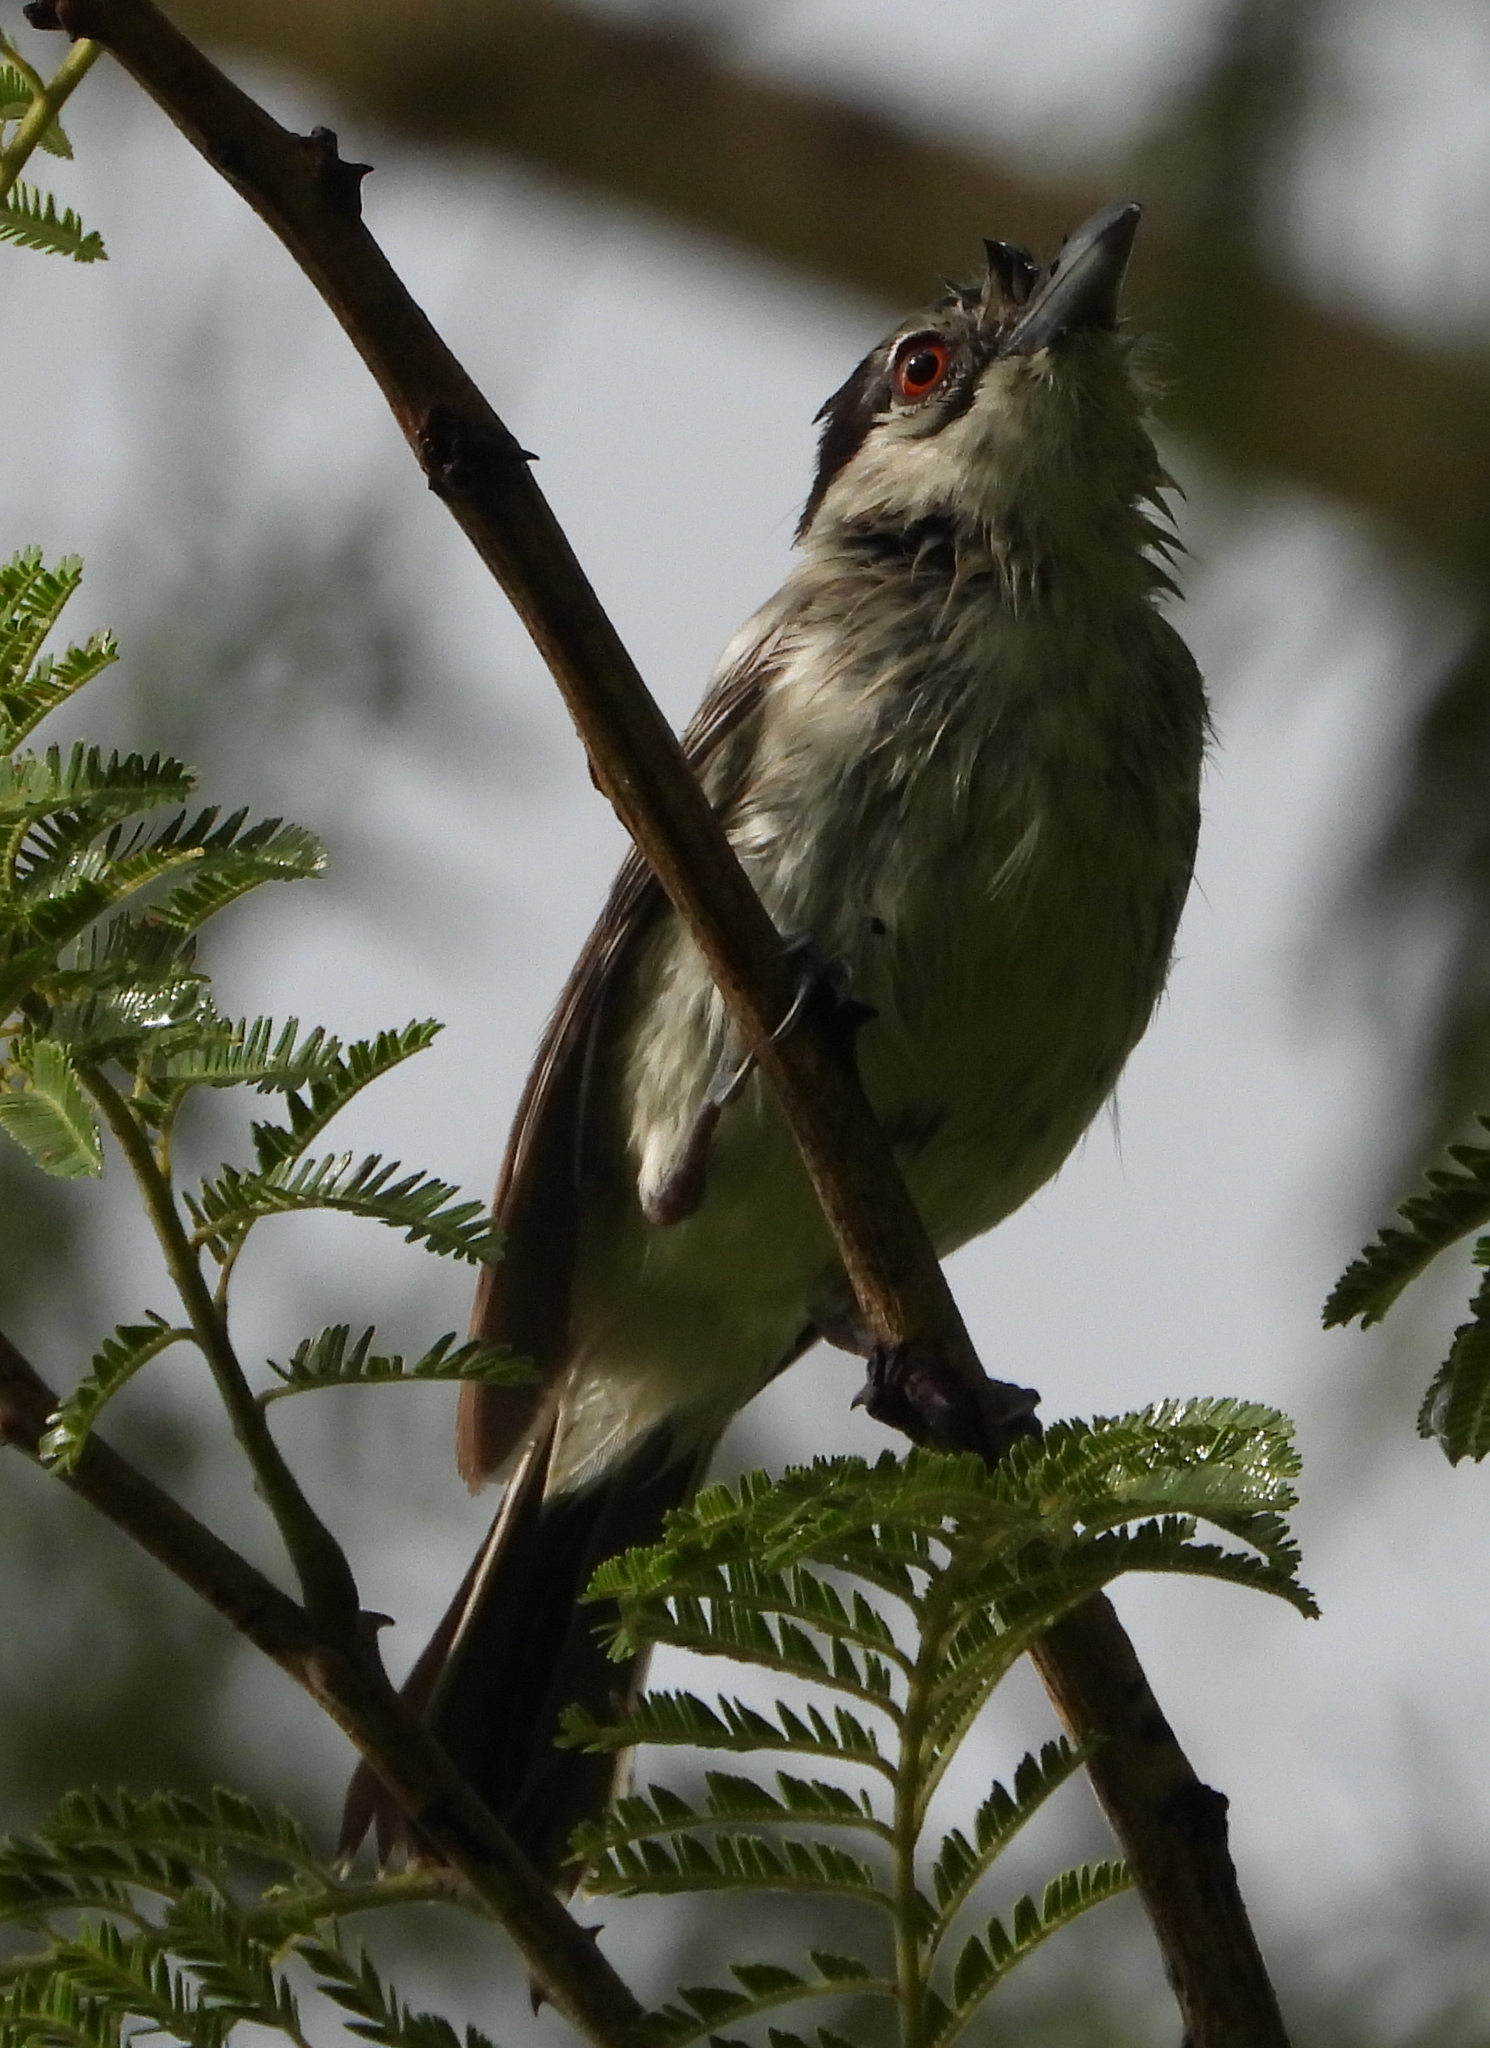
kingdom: Animalia
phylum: Chordata
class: Aves
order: Passeriformes
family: Malaconotidae
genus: Dryoscopus
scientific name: Dryoscopus cubla
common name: Black-backed puffback
